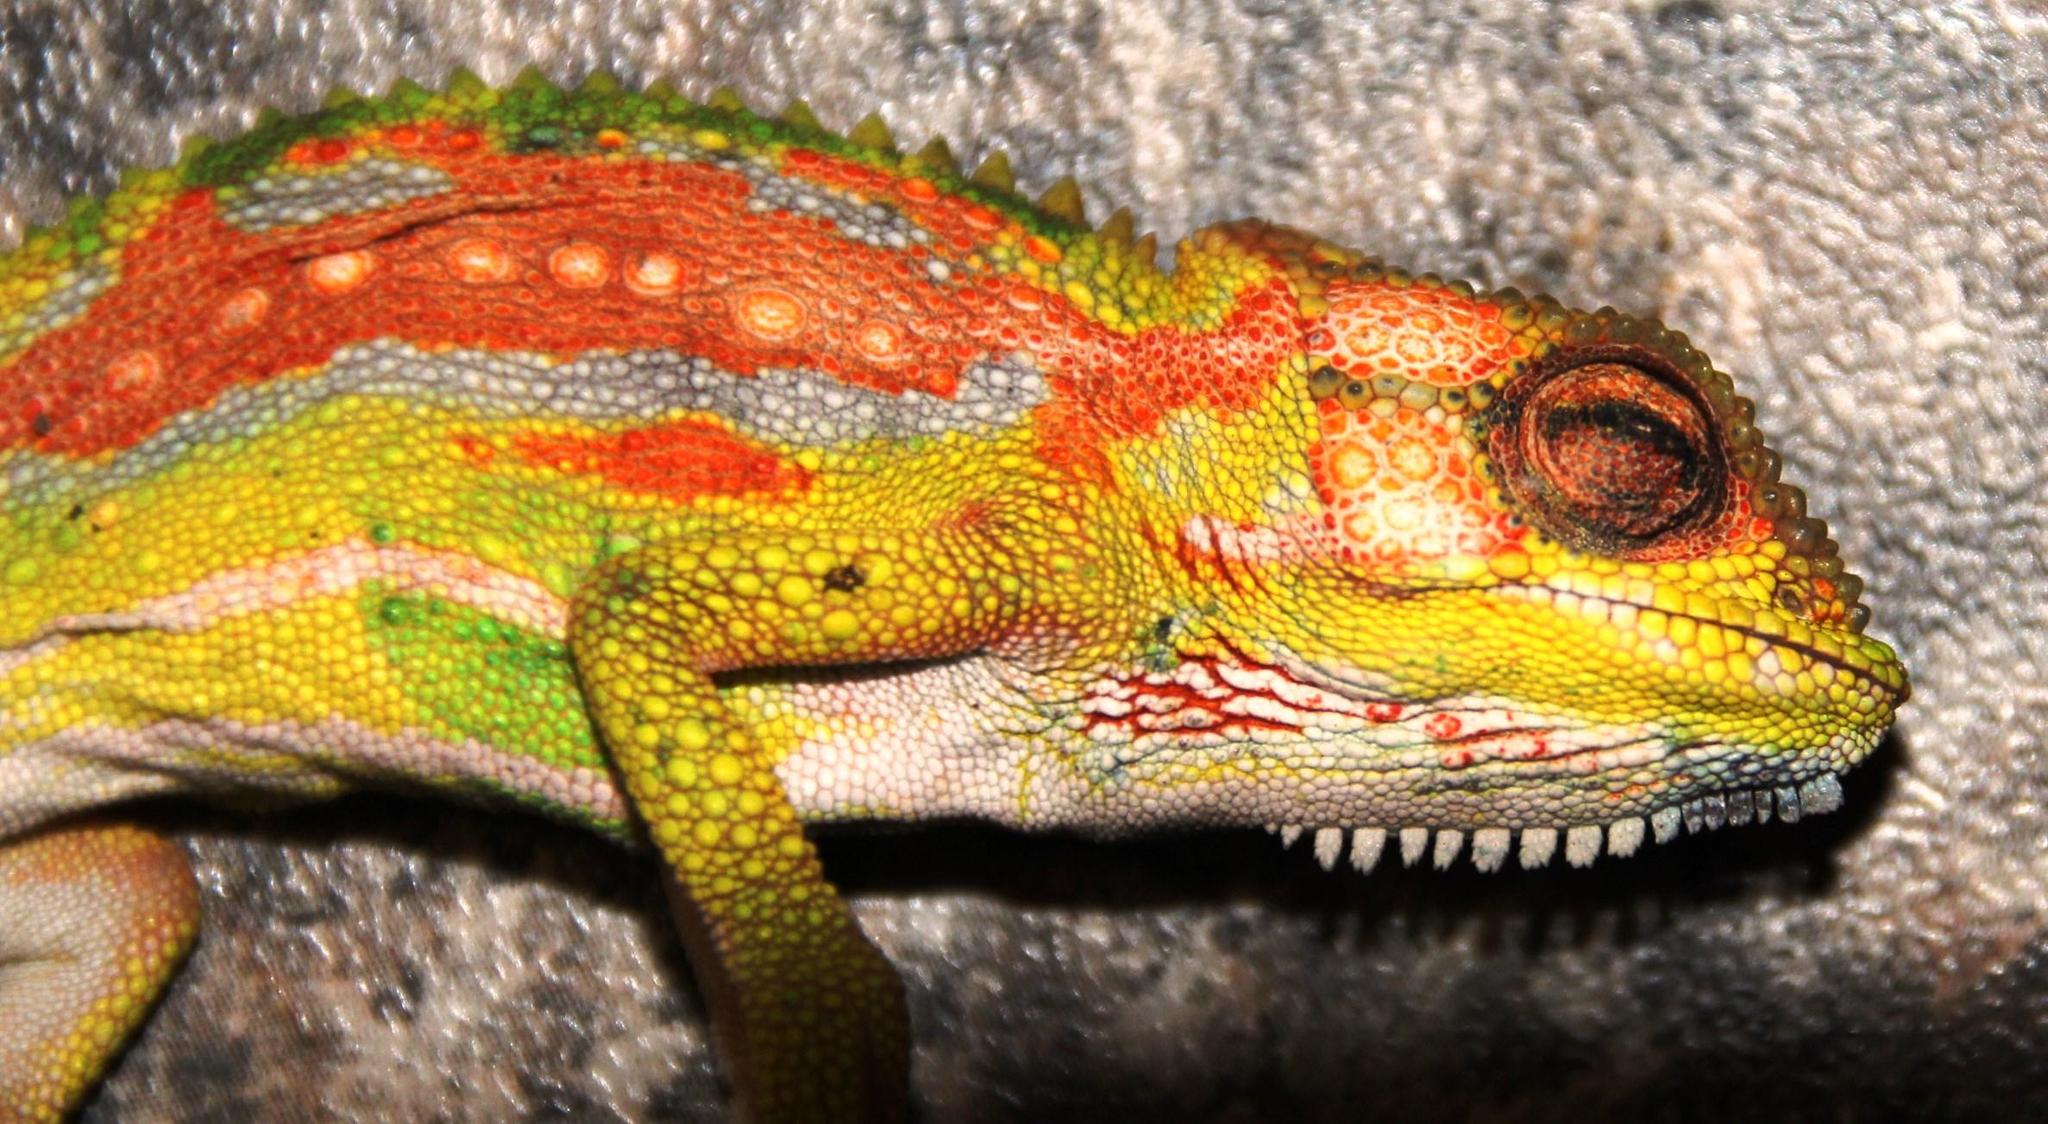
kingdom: Animalia
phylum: Chordata
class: Squamata
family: Chamaeleonidae
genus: Bradypodion
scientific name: Bradypodion pumilum
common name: Cape dwarf chameleon
